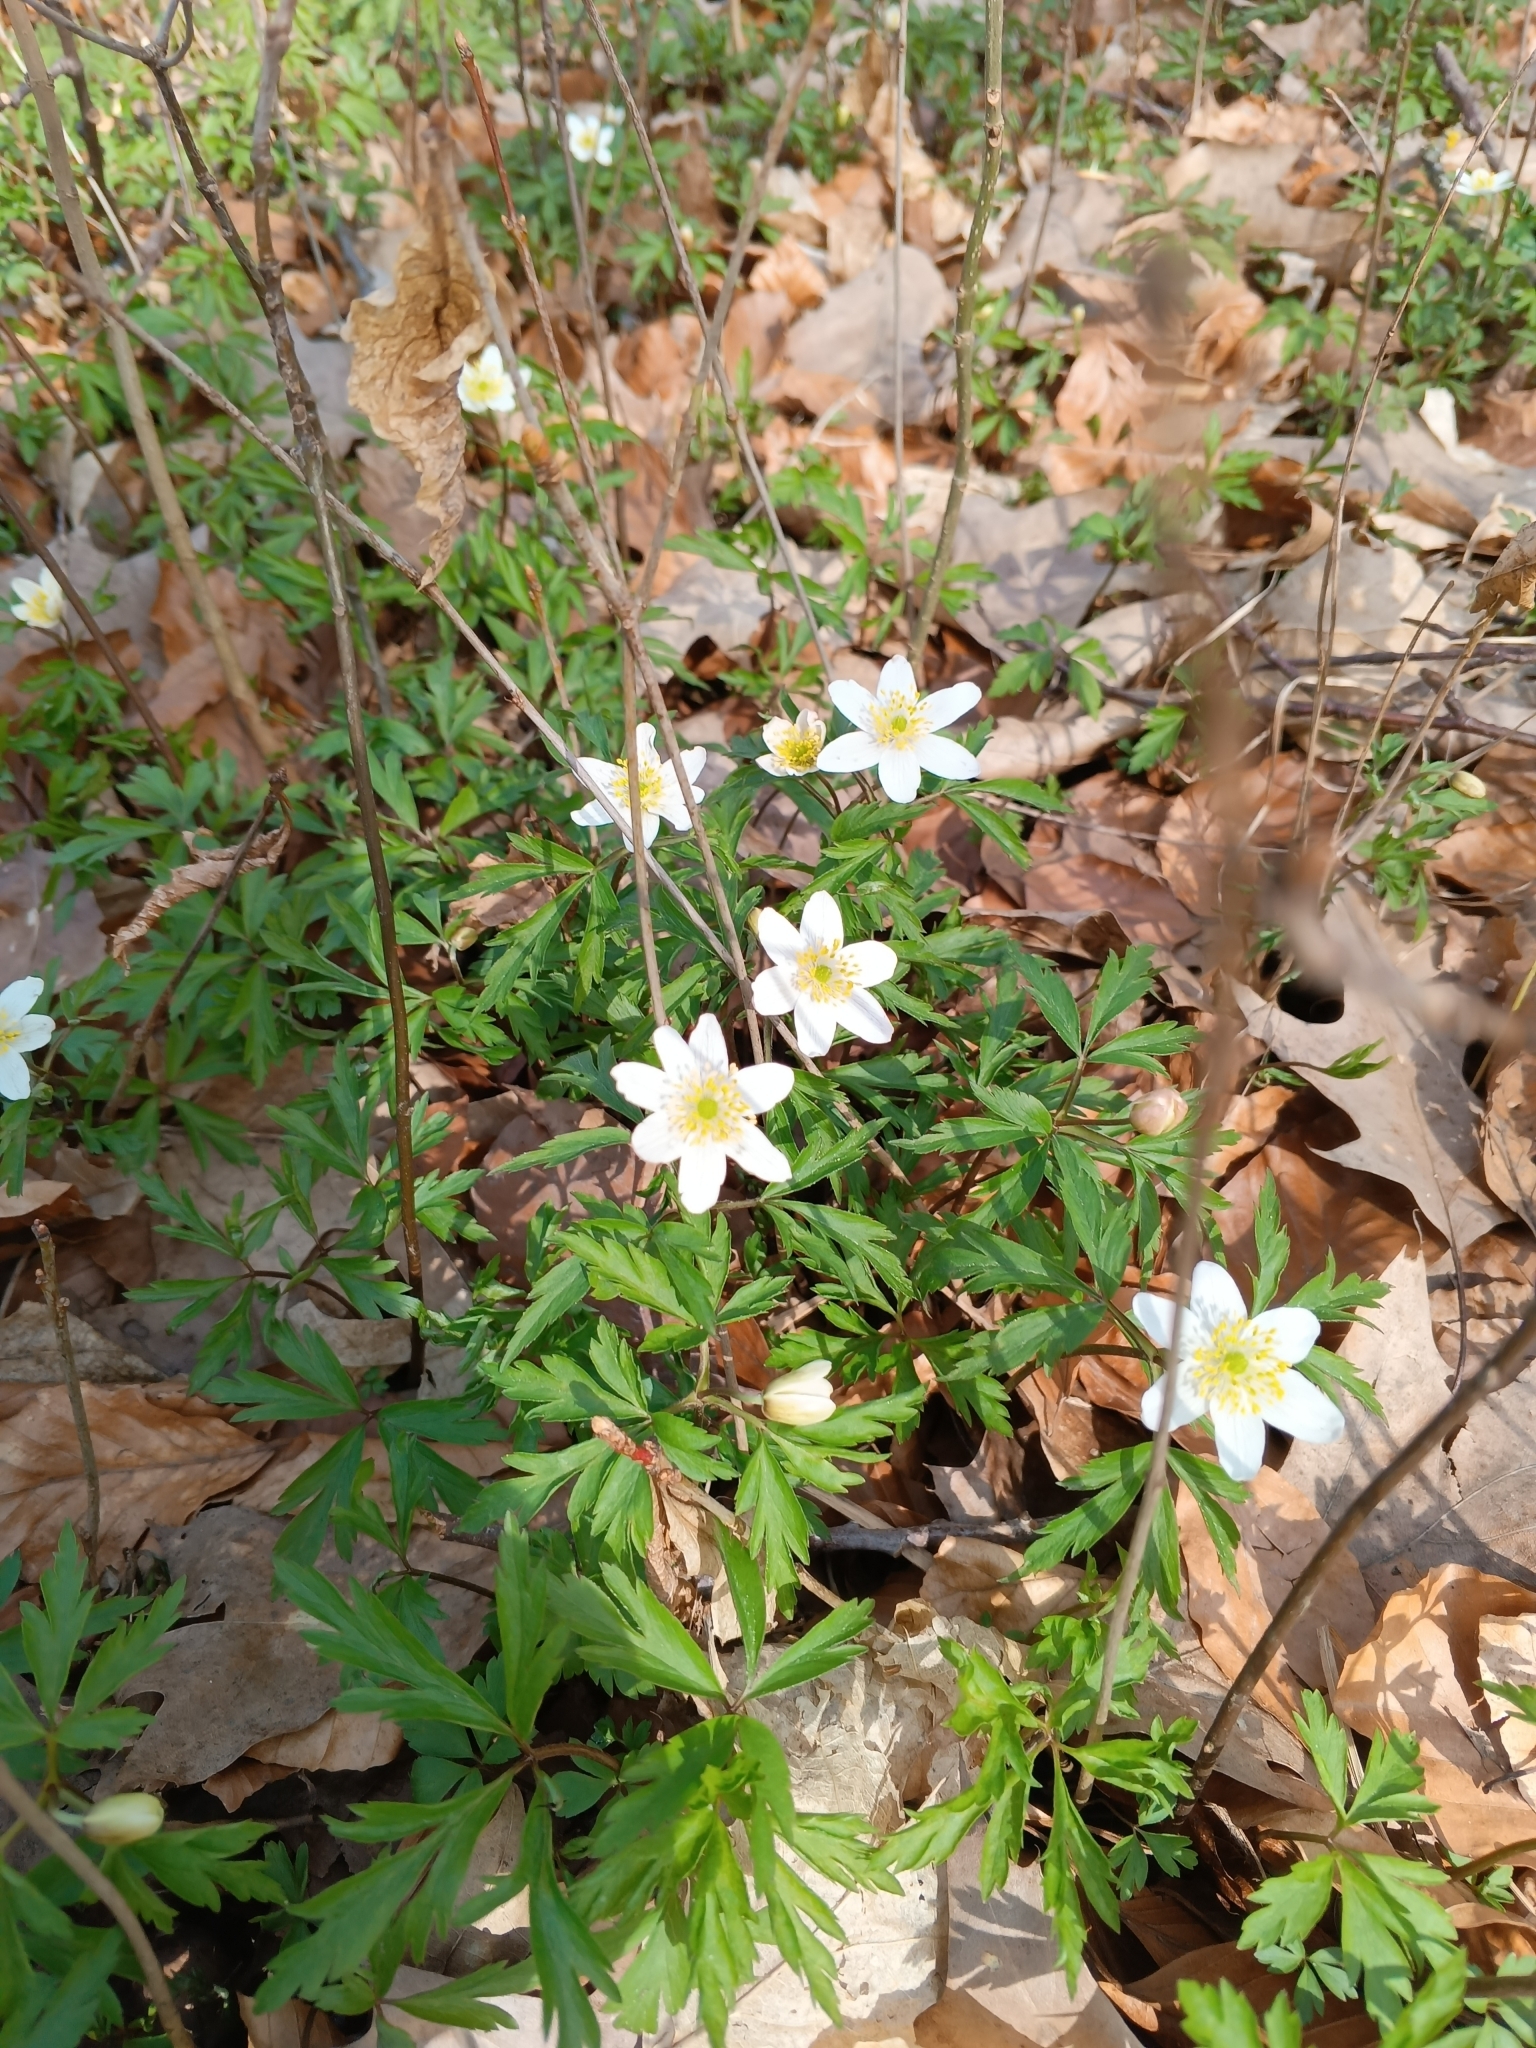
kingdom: Plantae
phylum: Tracheophyta
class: Magnoliopsida
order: Ranunculales
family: Ranunculaceae
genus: Anemone
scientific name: Anemone nemorosa
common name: Wood anemone
